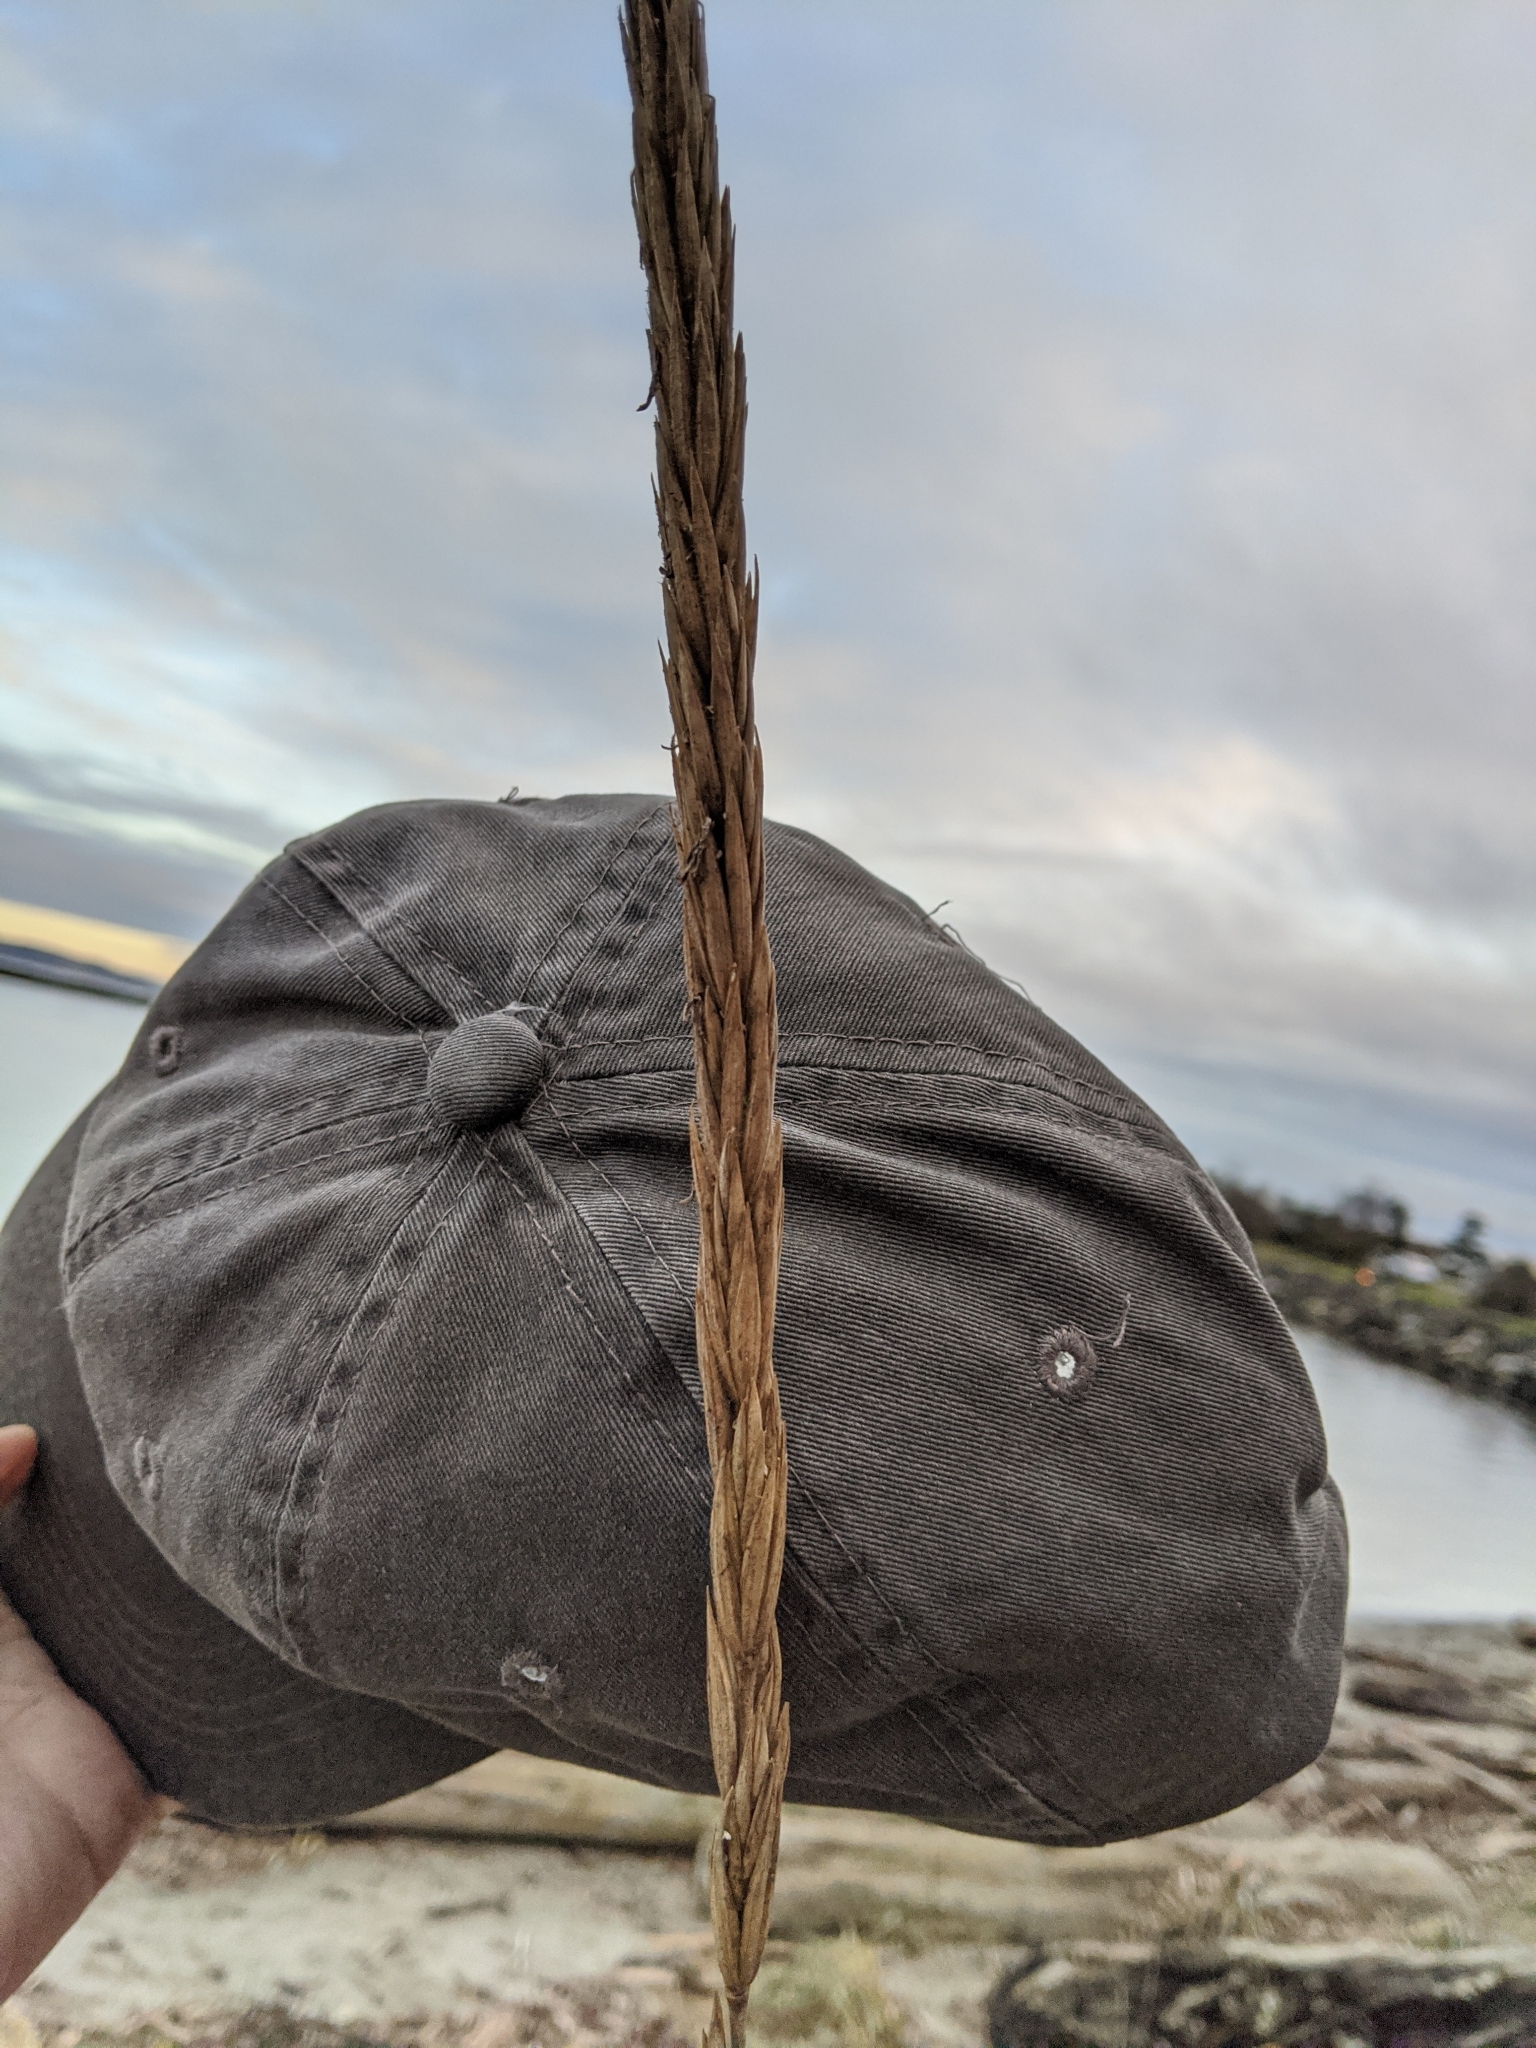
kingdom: Plantae
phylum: Tracheophyta
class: Liliopsida
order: Poales
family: Poaceae
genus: Leymus
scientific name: Leymus mollis
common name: American dune grass
